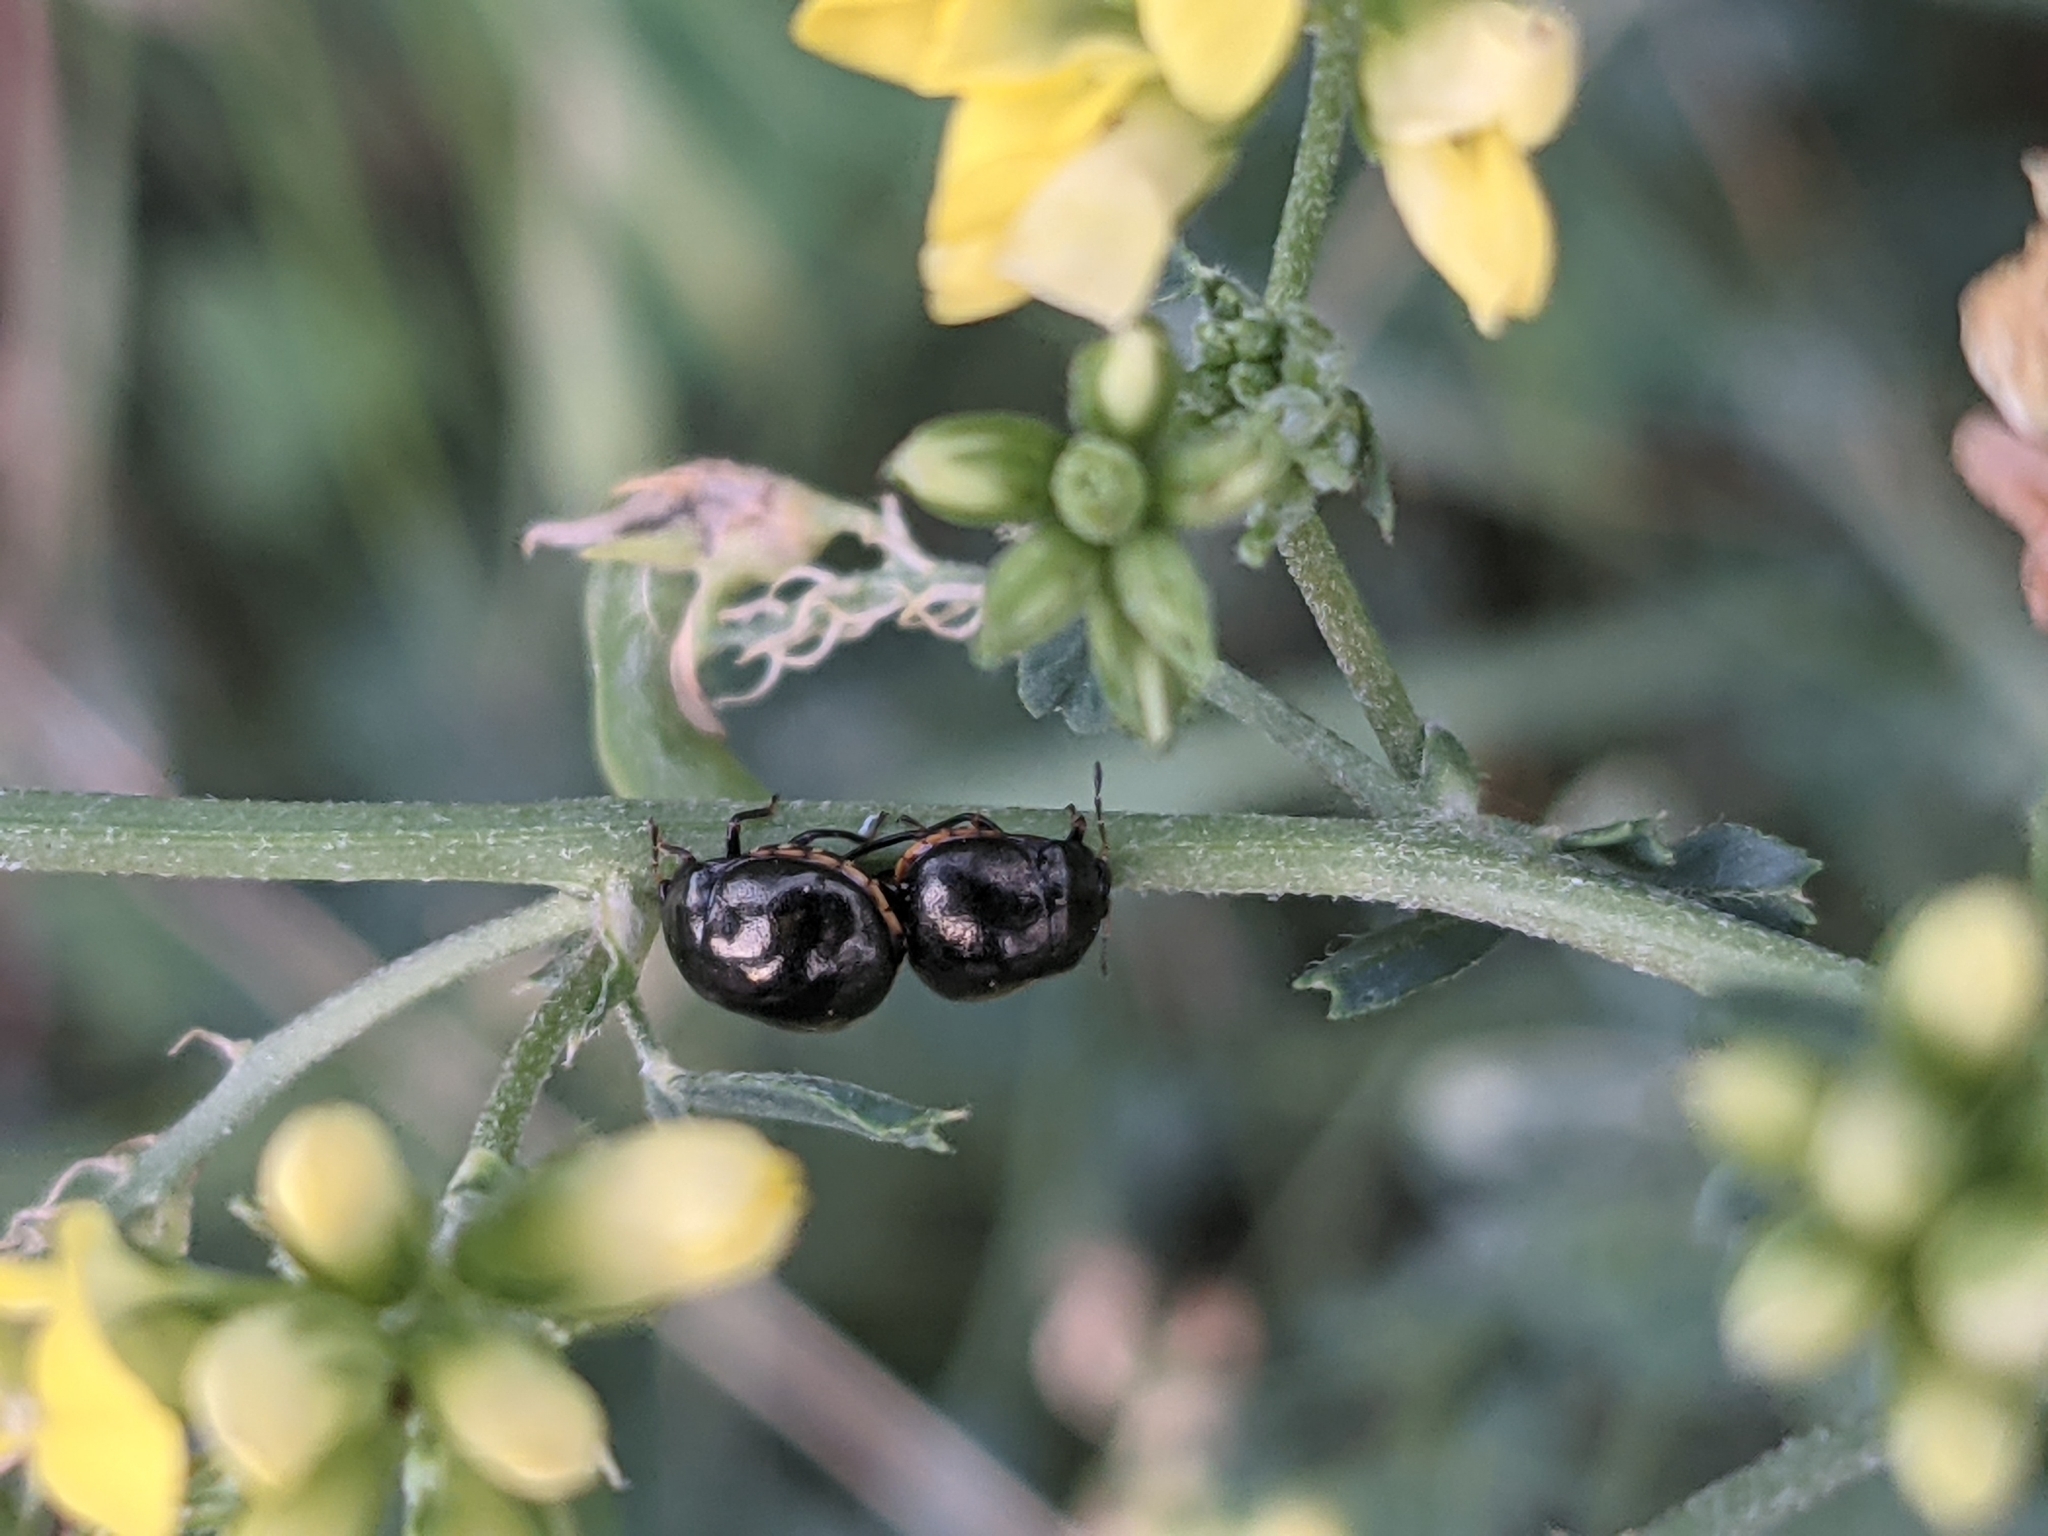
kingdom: Animalia
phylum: Arthropoda
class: Insecta
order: Hemiptera
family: Plataspidae
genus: Coptosoma
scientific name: Coptosoma scutellatum
